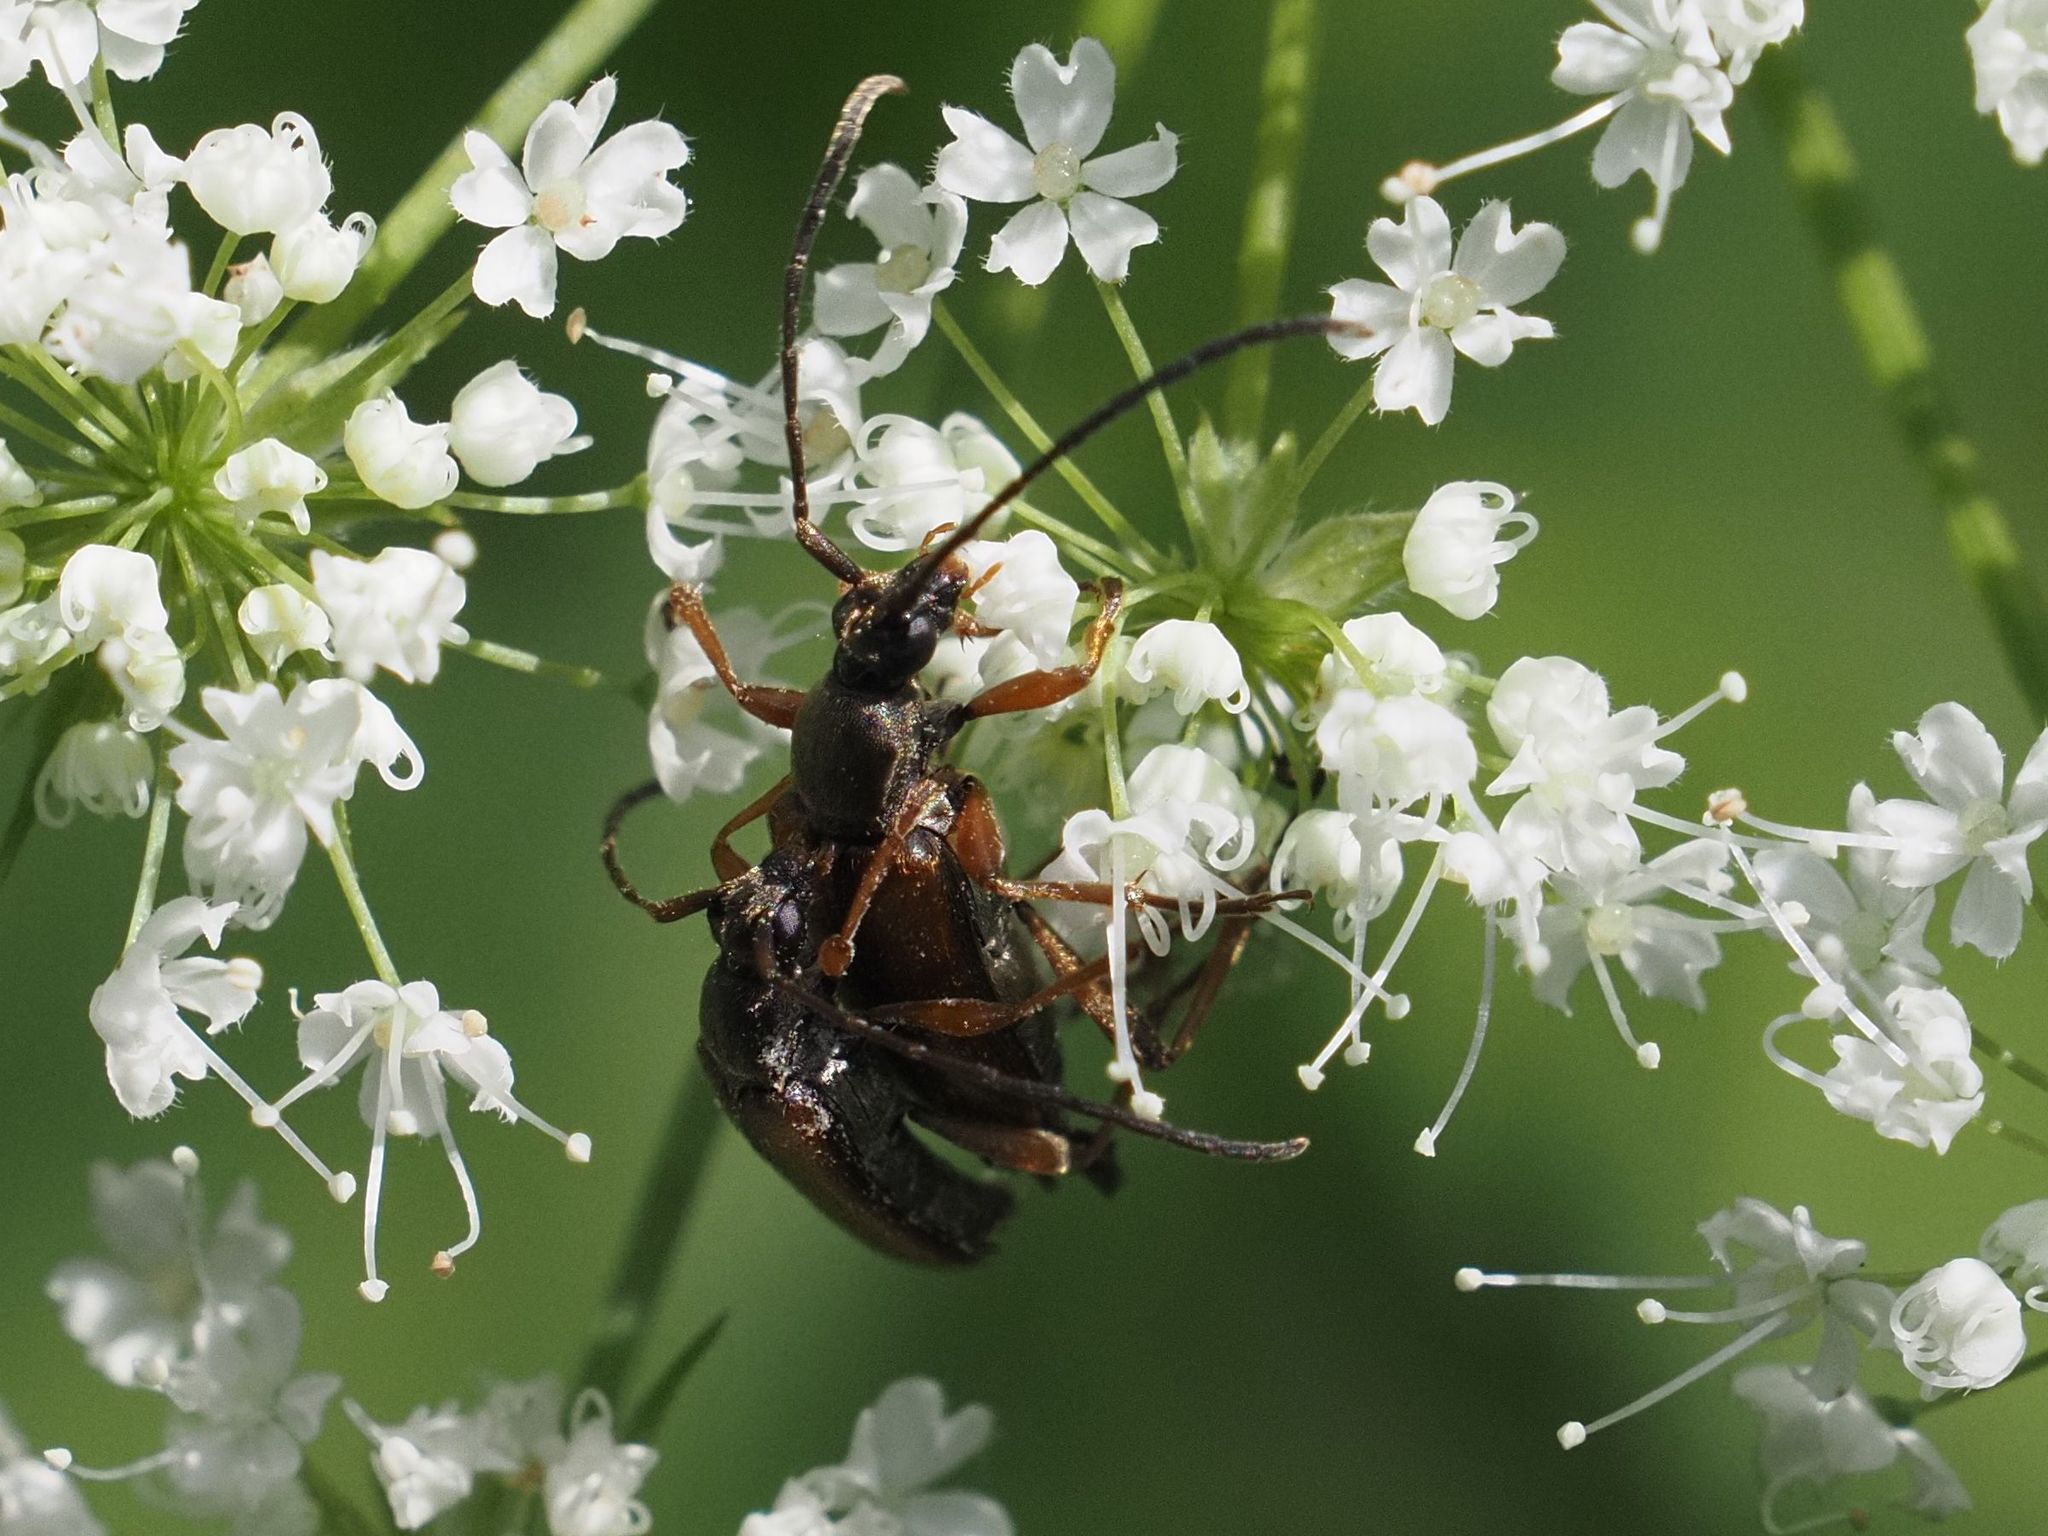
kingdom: Animalia
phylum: Arthropoda
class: Insecta
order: Coleoptera
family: Cerambycidae
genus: Alosterna
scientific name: Alosterna tabacicolor
